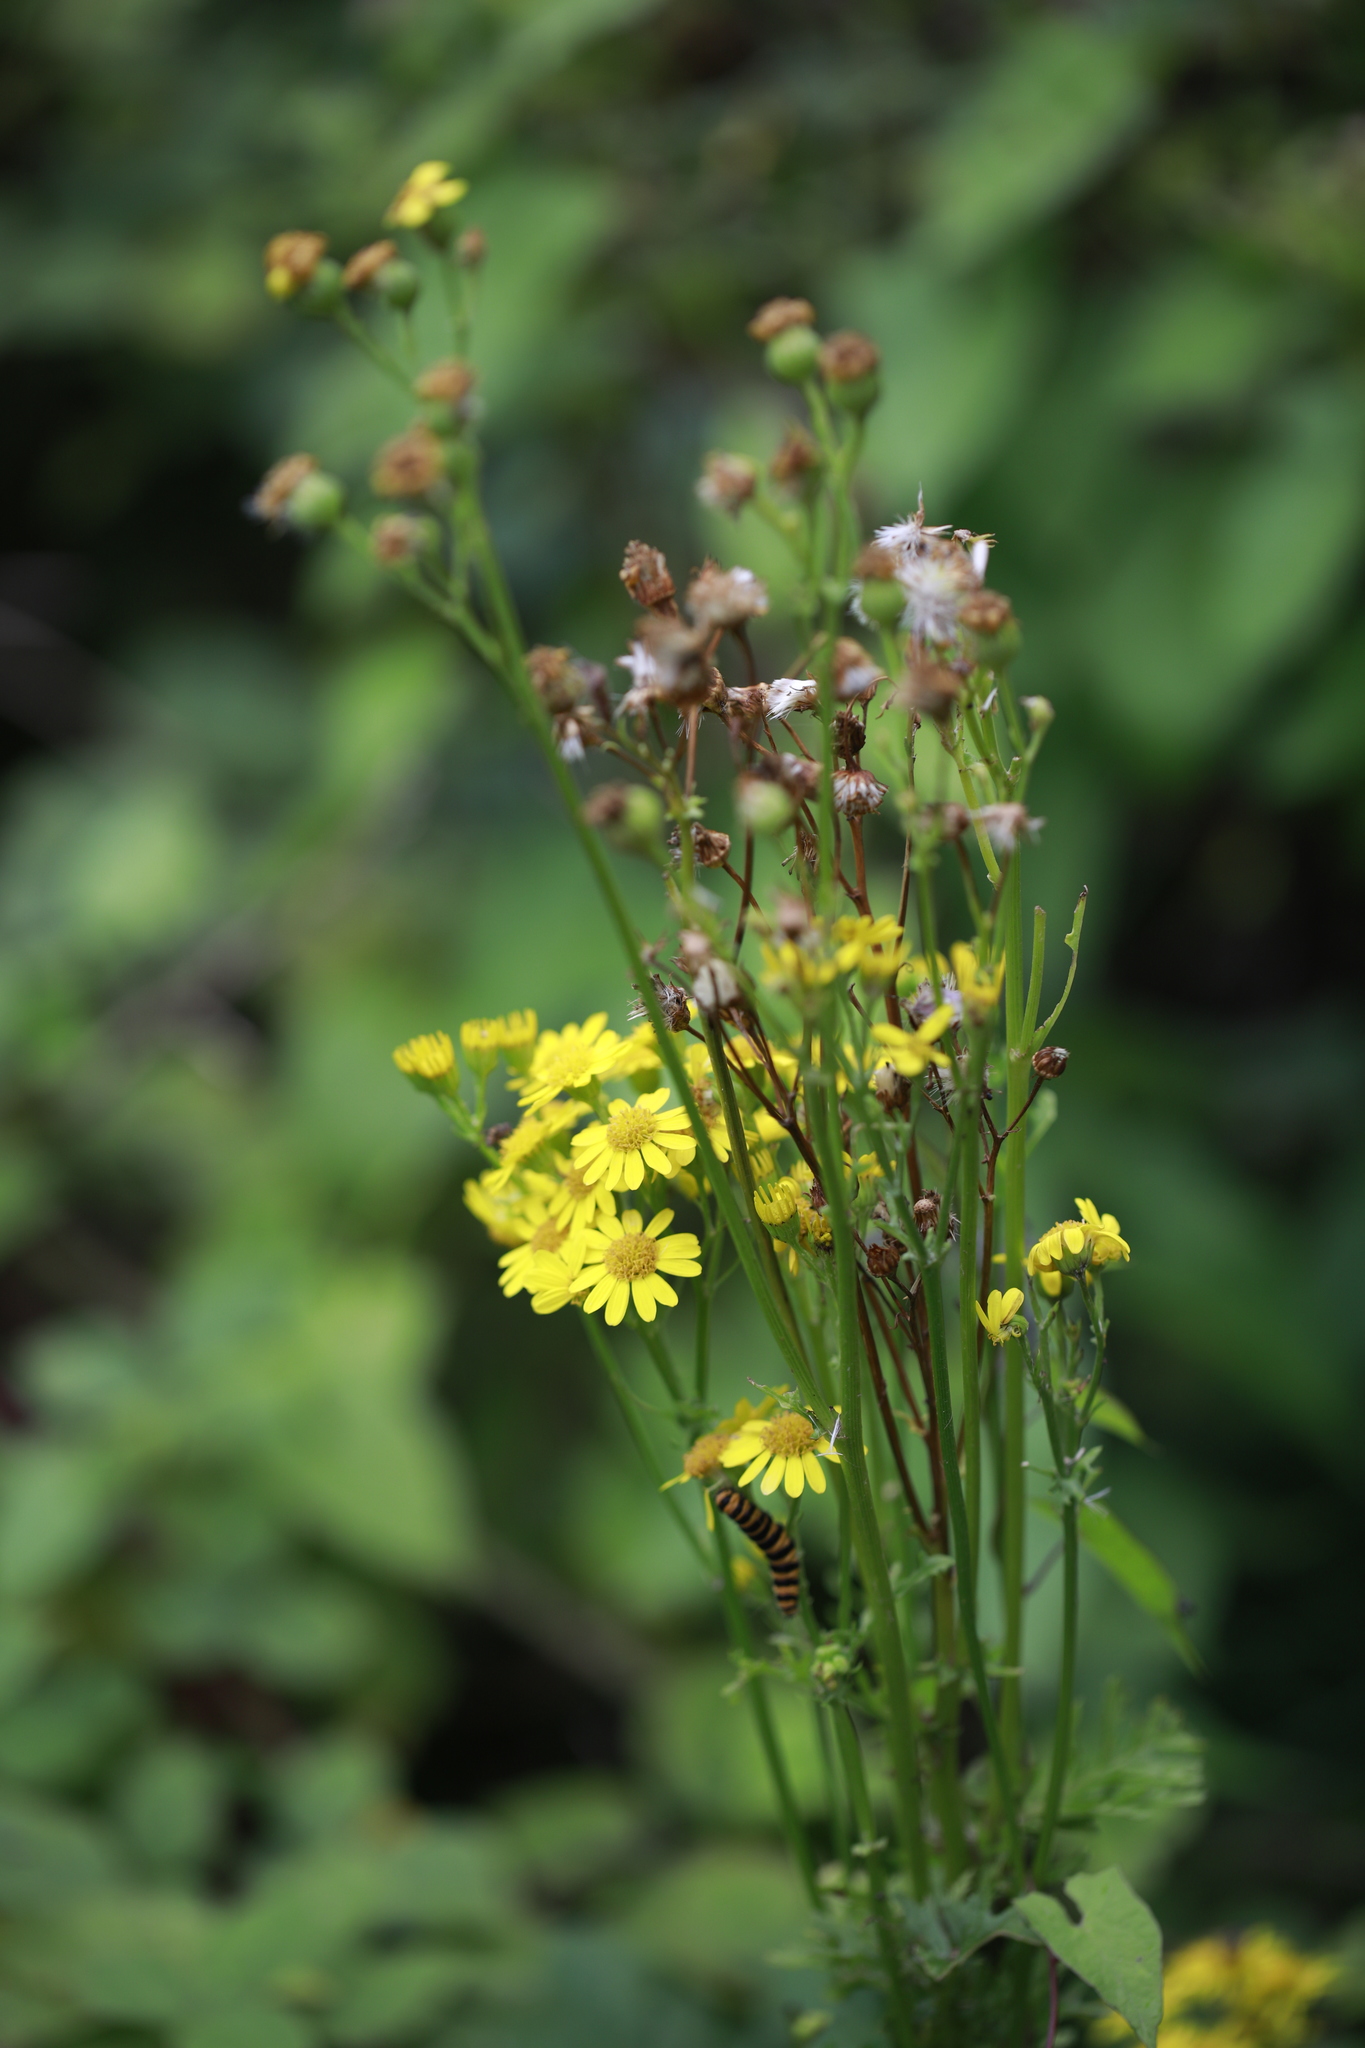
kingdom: Plantae
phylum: Tracheophyta
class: Magnoliopsida
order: Asterales
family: Asteraceae
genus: Jacobaea
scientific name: Jacobaea vulgaris
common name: Stinking willie
